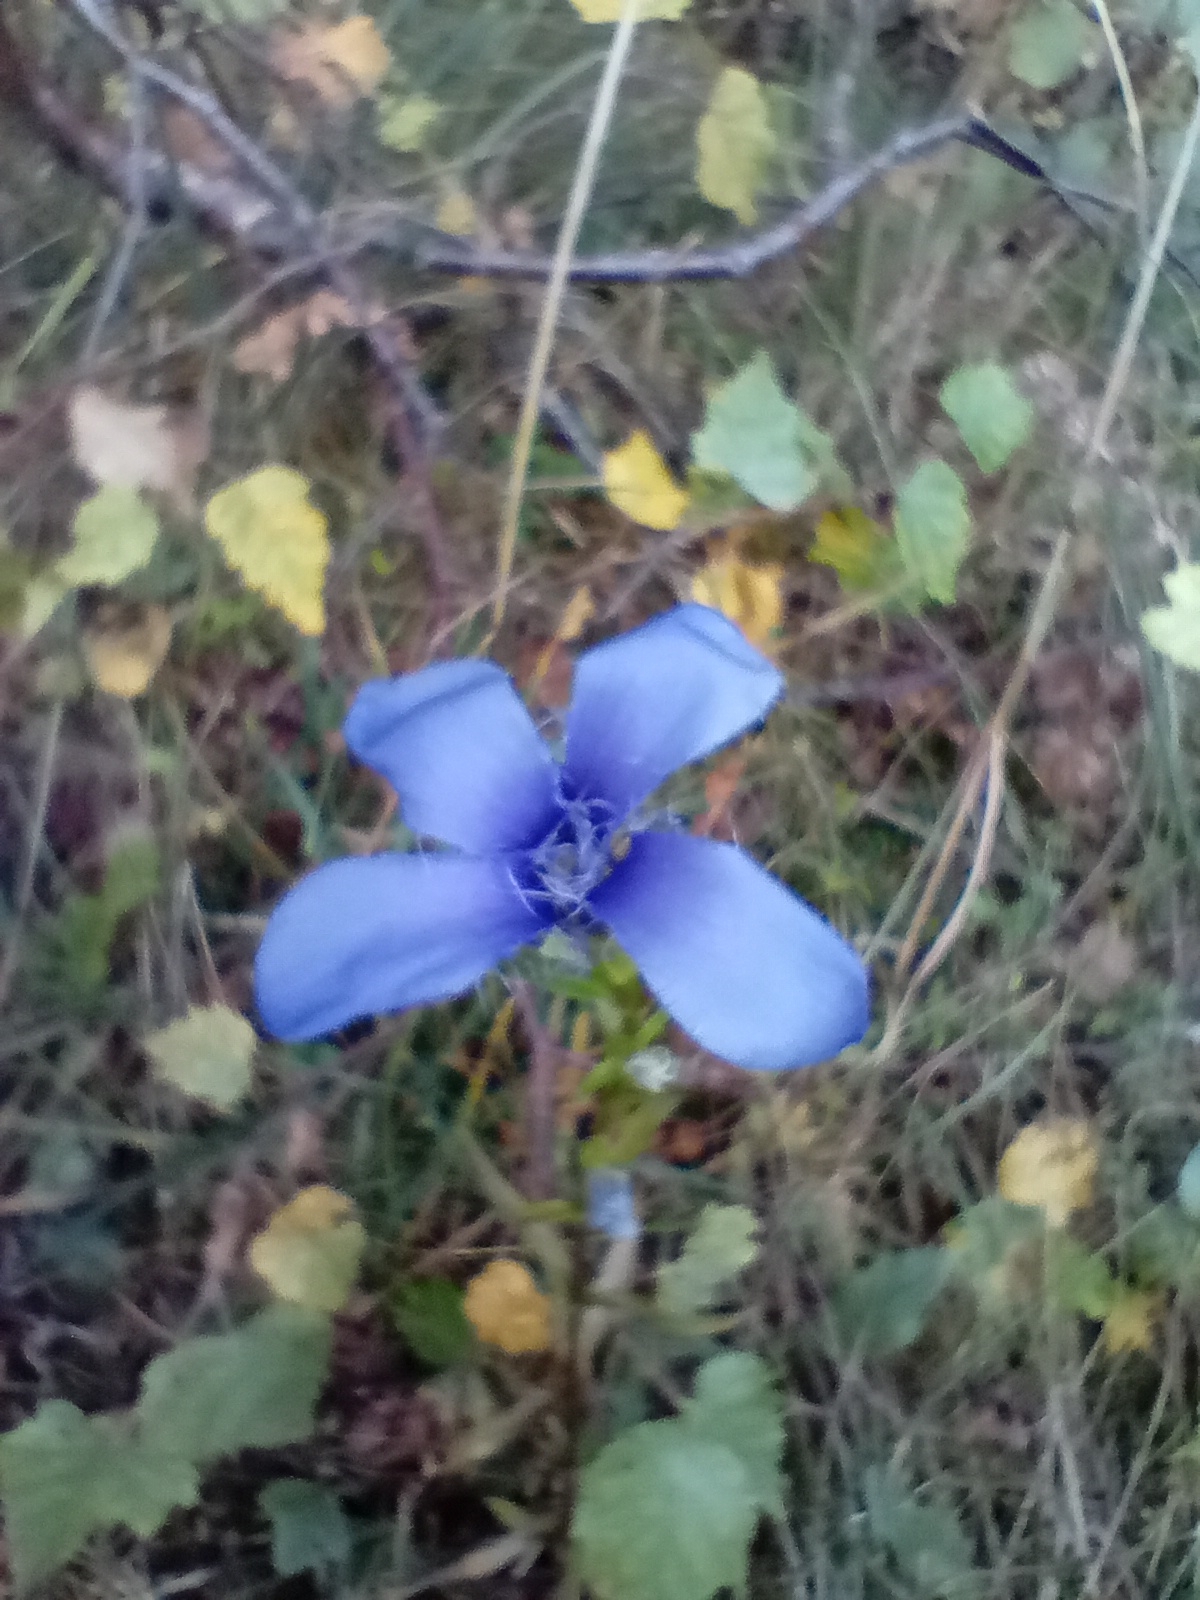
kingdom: Plantae
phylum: Tracheophyta
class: Magnoliopsida
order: Gentianales
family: Gentianaceae
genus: Gentianopsis
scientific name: Gentianopsis ciliata
